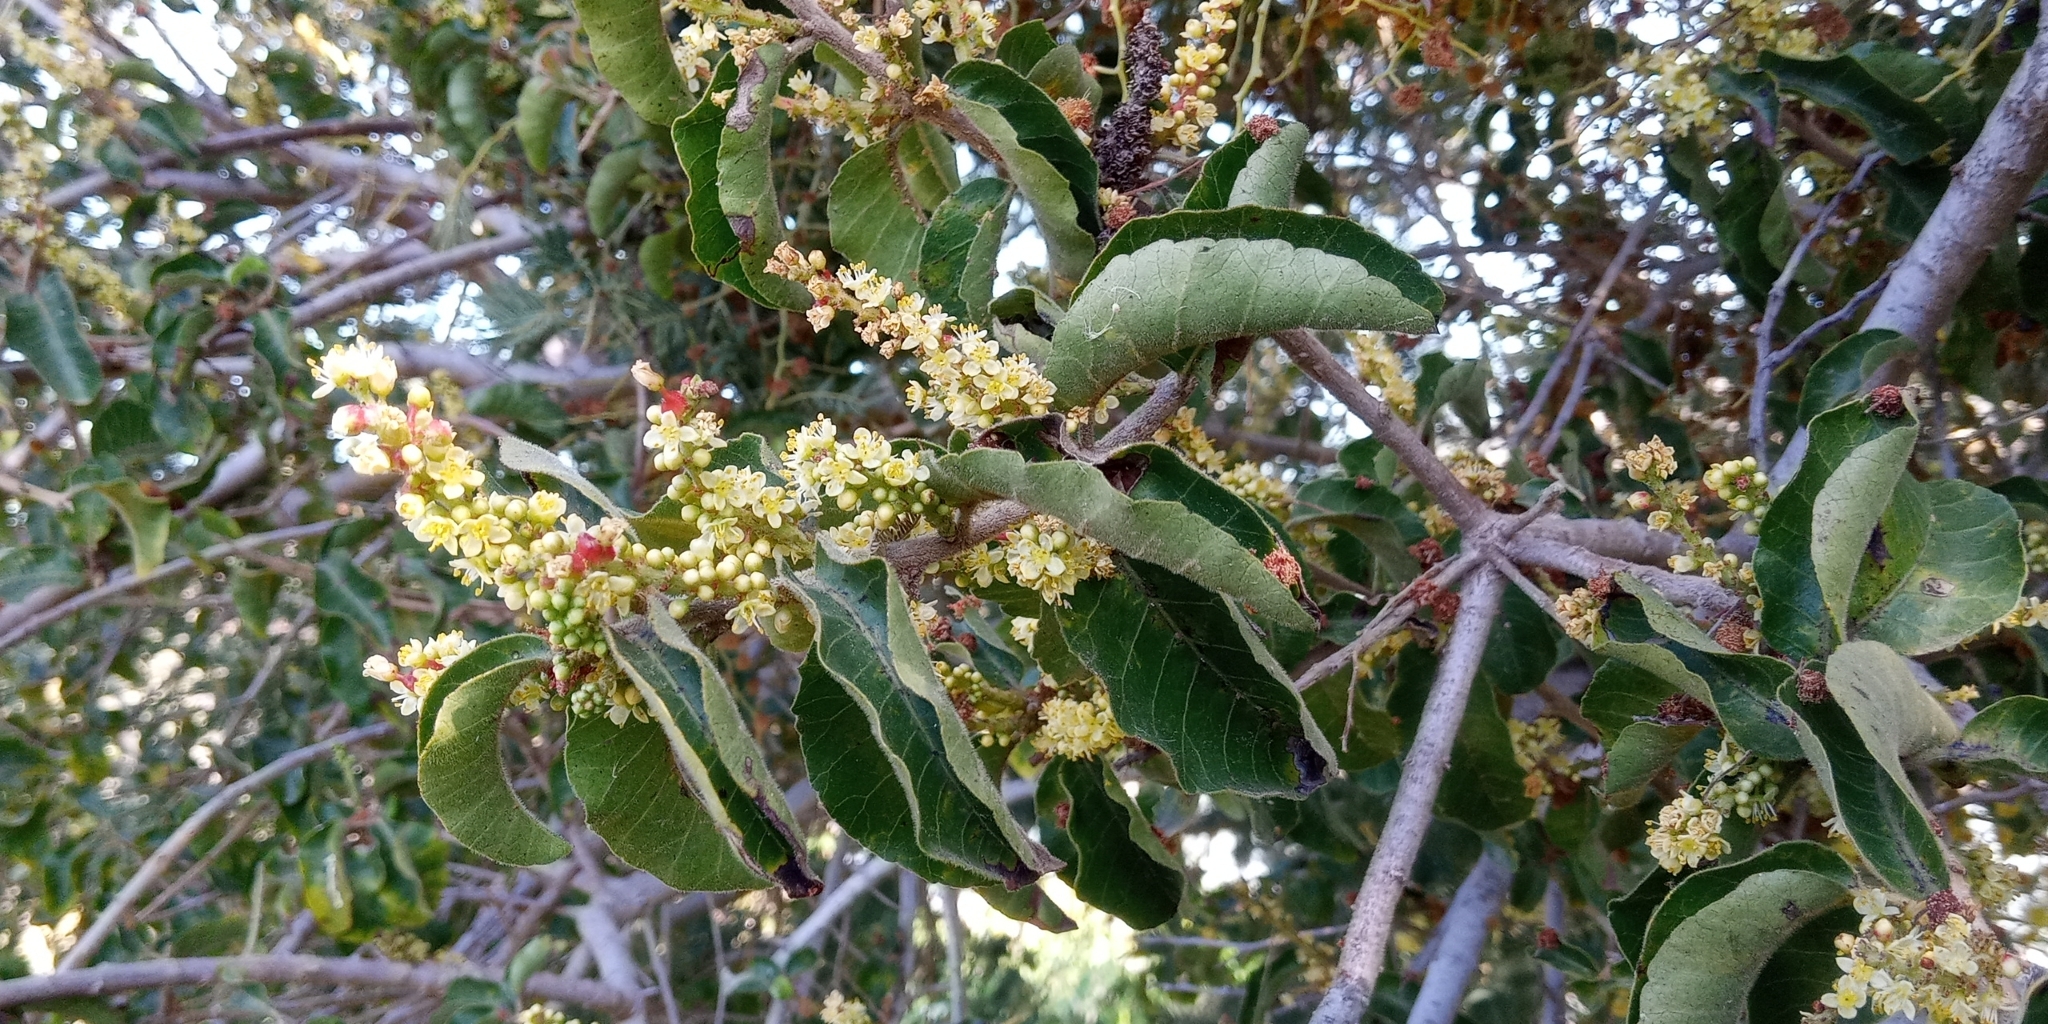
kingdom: Plantae
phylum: Tracheophyta
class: Magnoliopsida
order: Sapindales
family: Anacardiaceae
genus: Schinus
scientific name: Schinus latifolia
